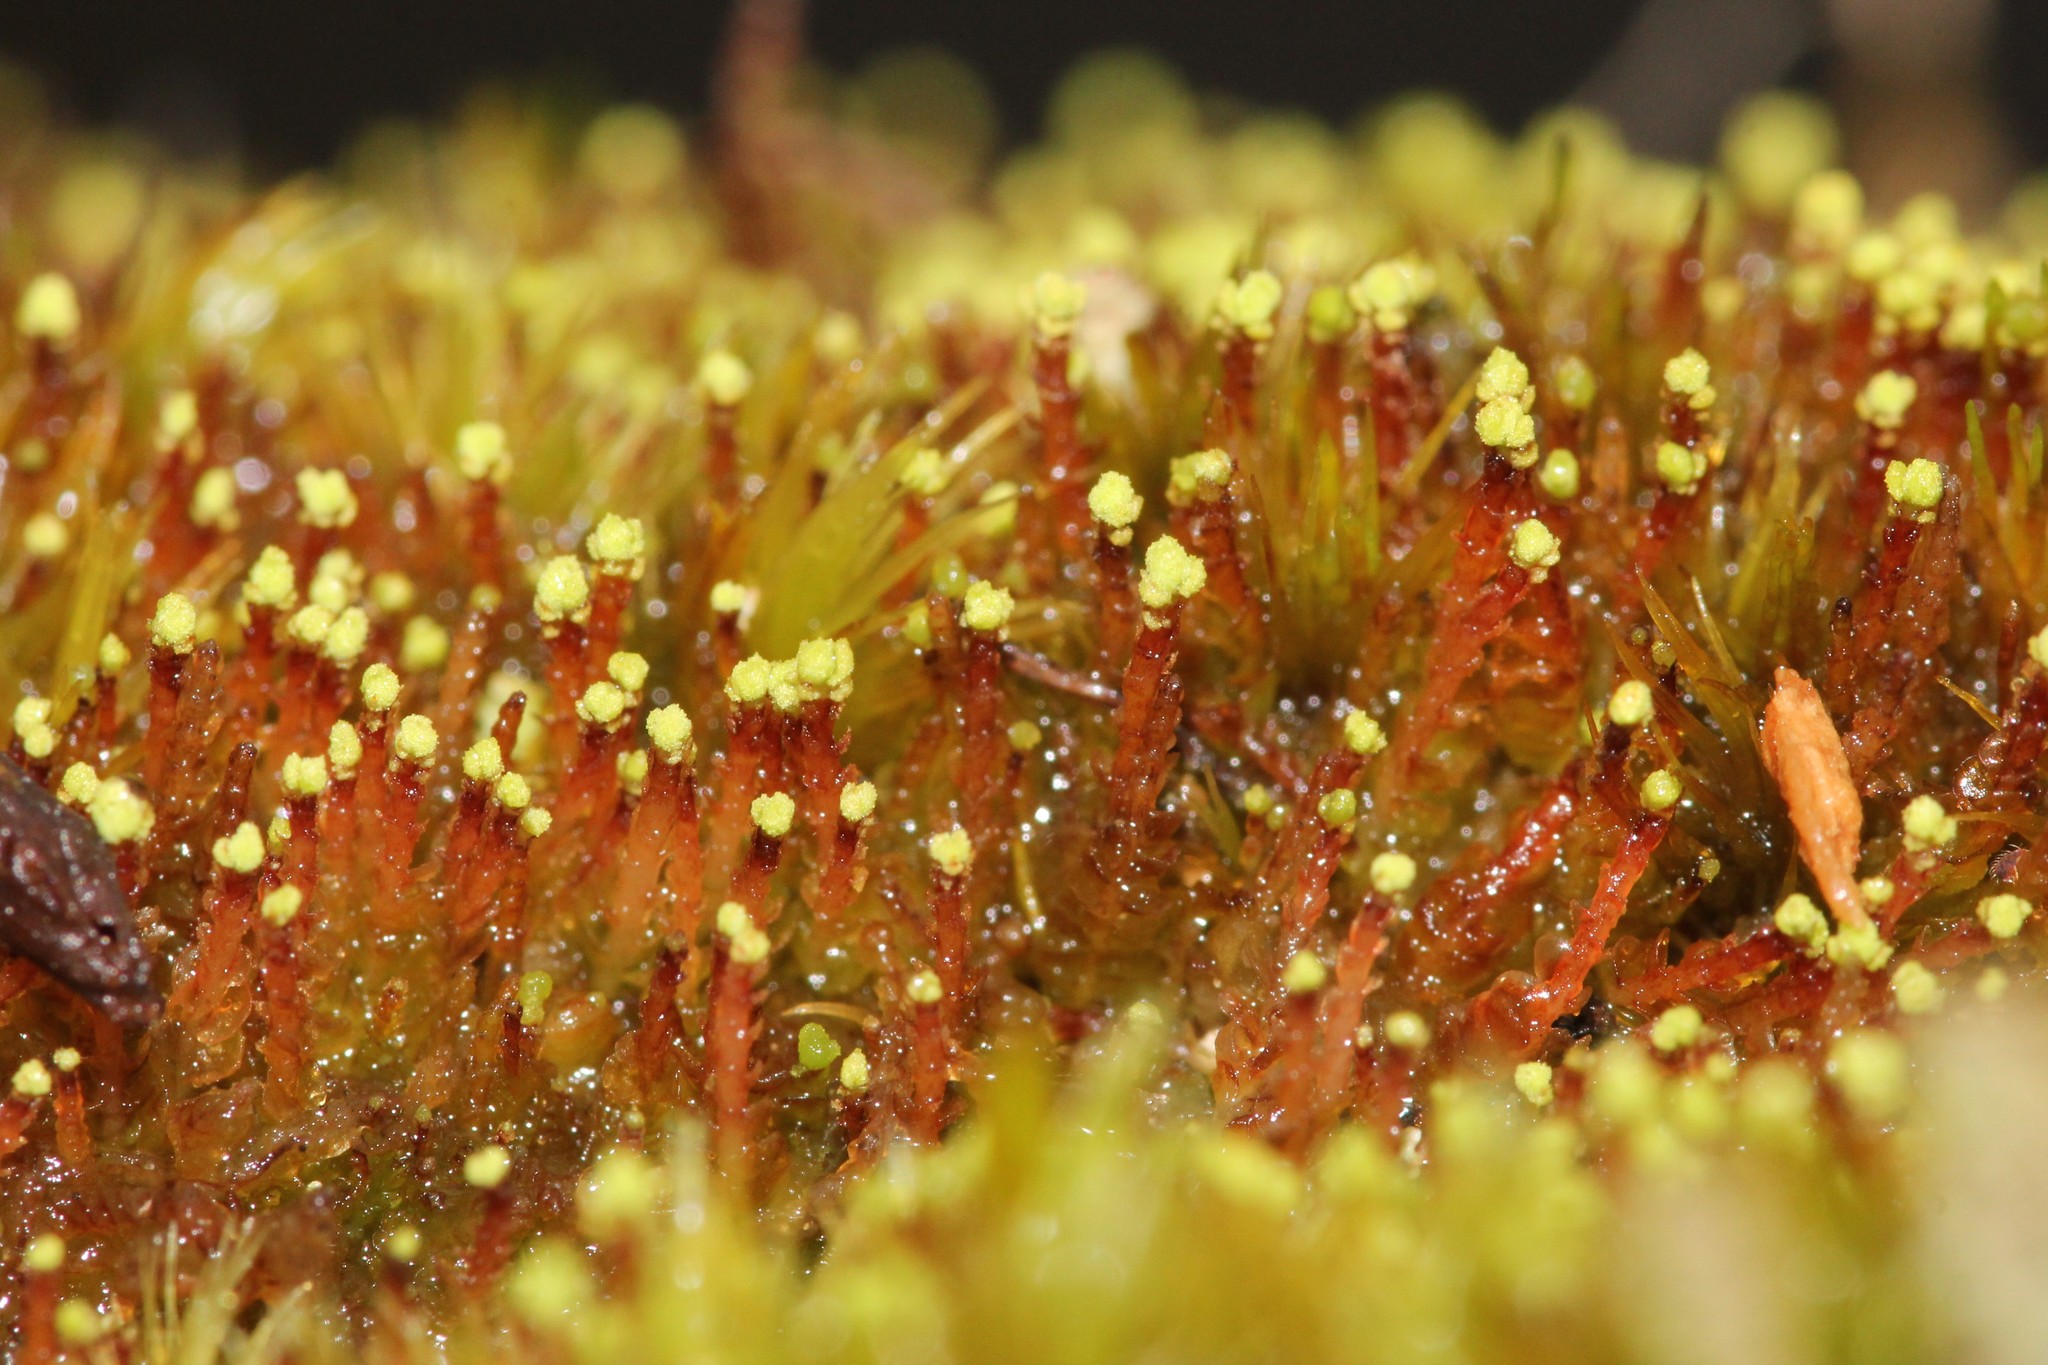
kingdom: Plantae
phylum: Marchantiophyta
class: Jungermanniopsida
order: Jungermanniales
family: Cephaloziaceae
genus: Odontoschisma
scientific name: Odontoschisma denudatum
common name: Matchstick flapwort
